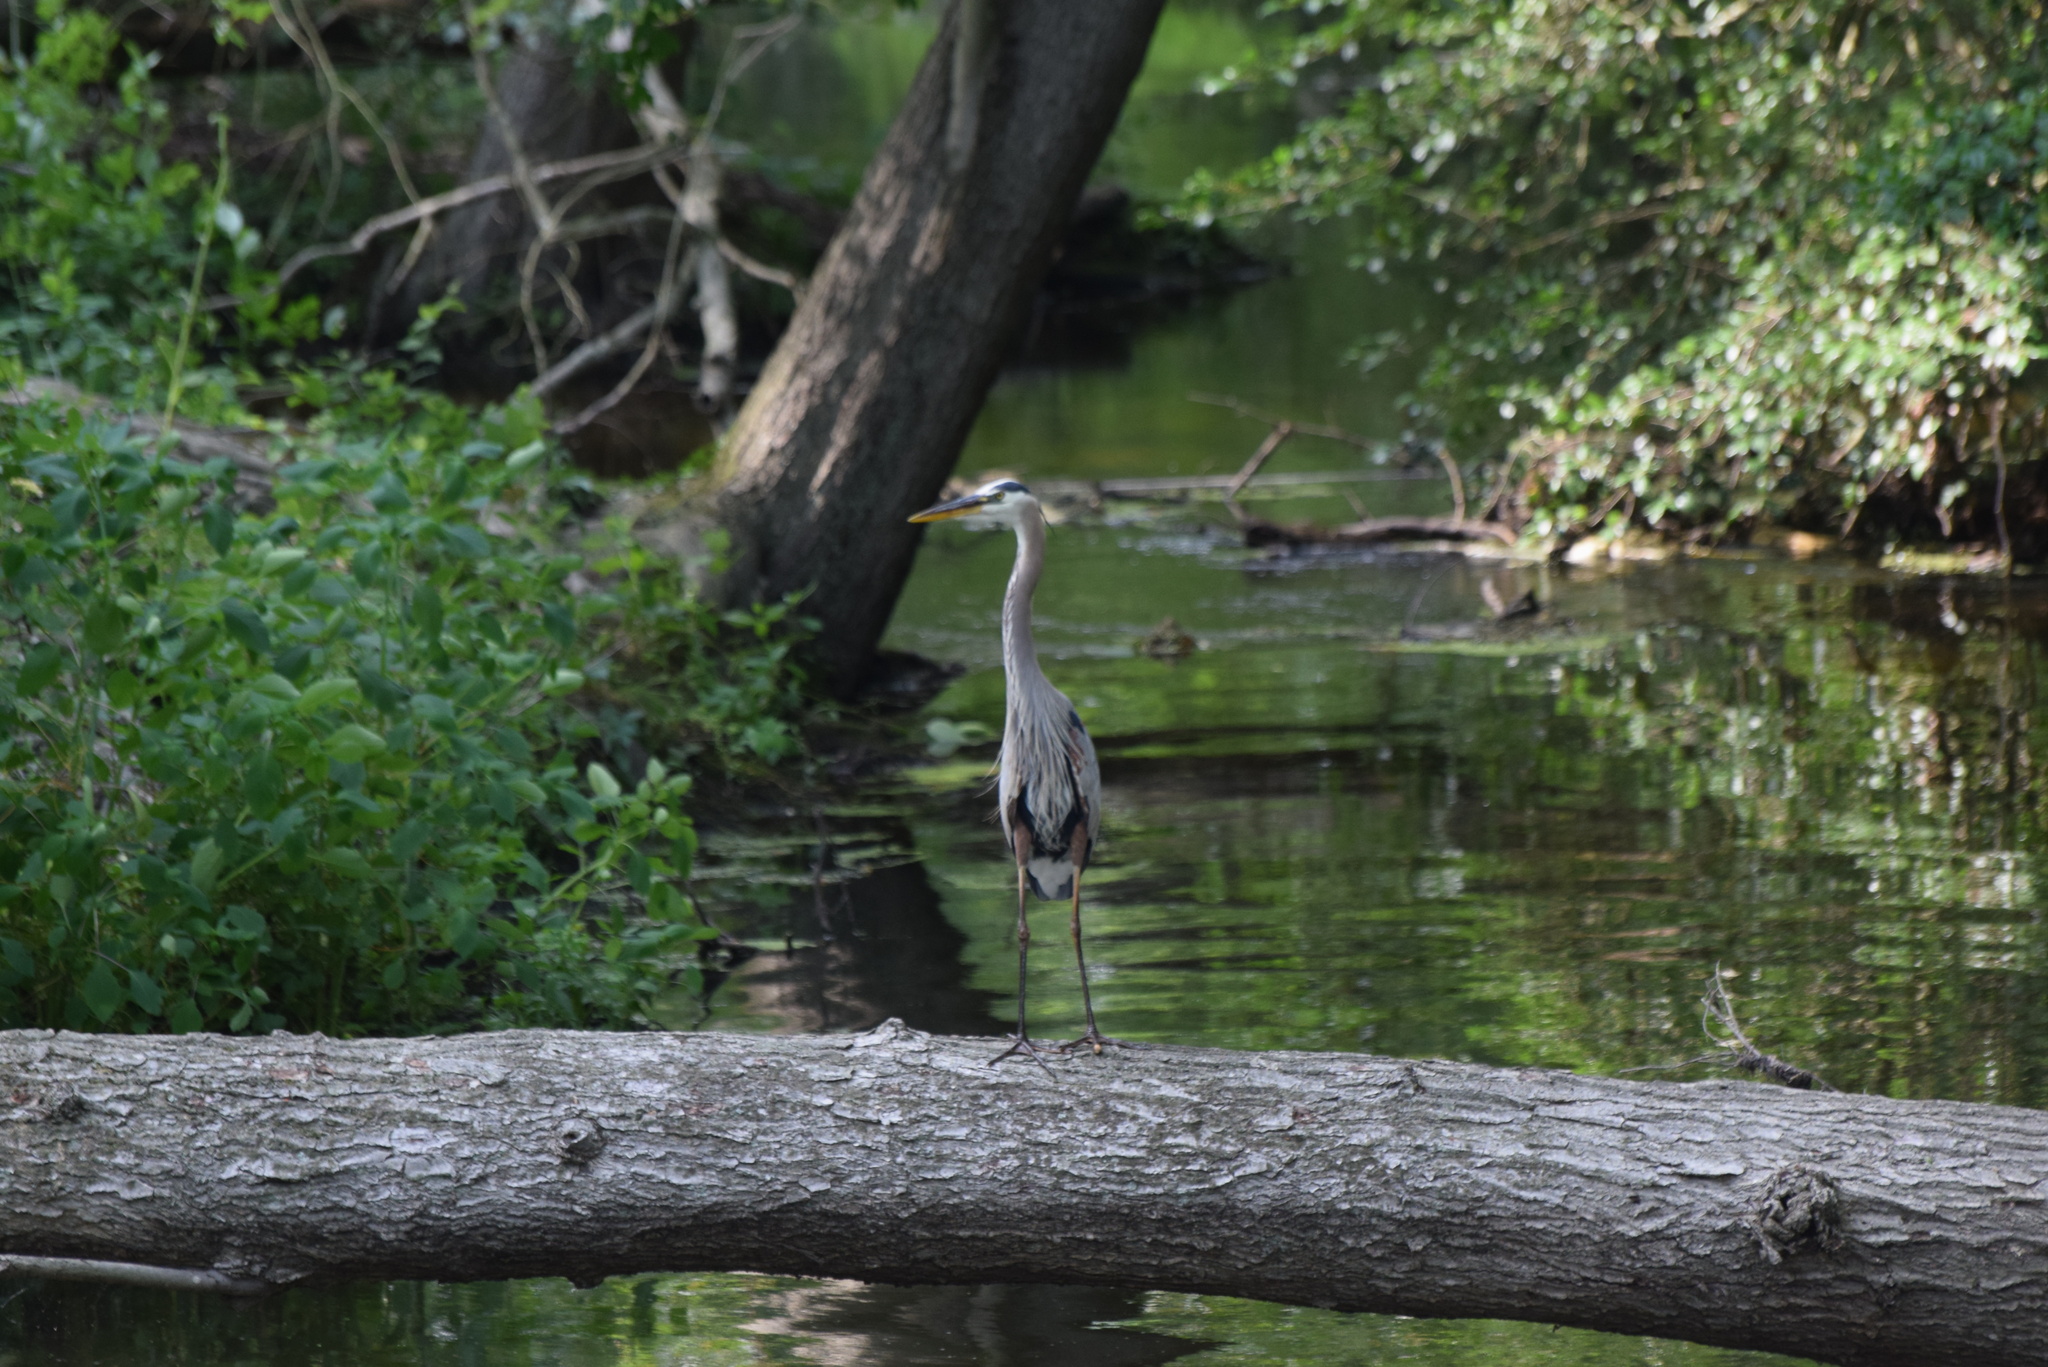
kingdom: Animalia
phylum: Chordata
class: Aves
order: Pelecaniformes
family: Ardeidae
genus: Ardea
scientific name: Ardea herodias
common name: Great blue heron
